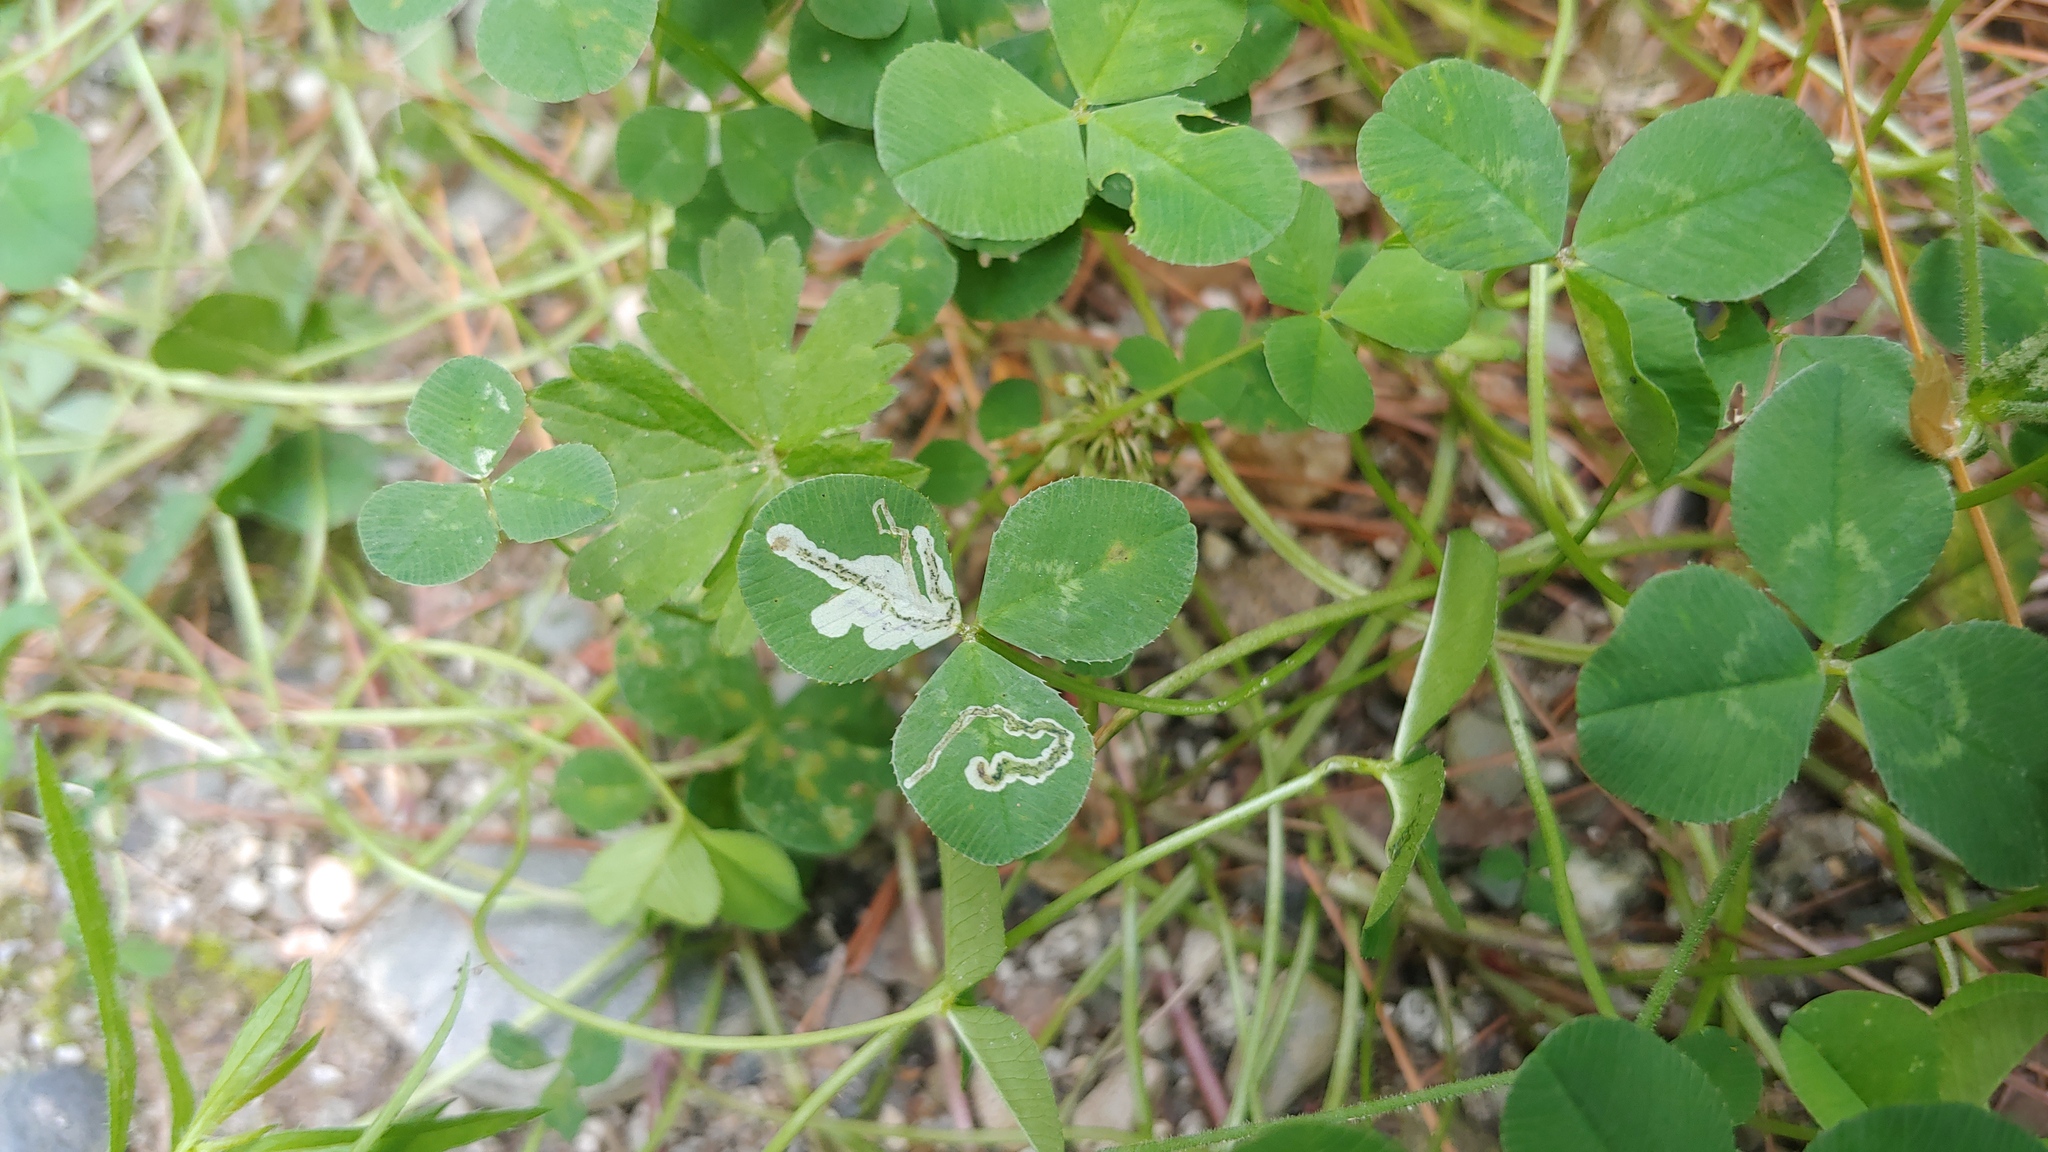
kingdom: Animalia
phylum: Arthropoda
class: Insecta
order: Diptera
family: Agromyzidae
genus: Liriomyza
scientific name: Liriomyza fricki
